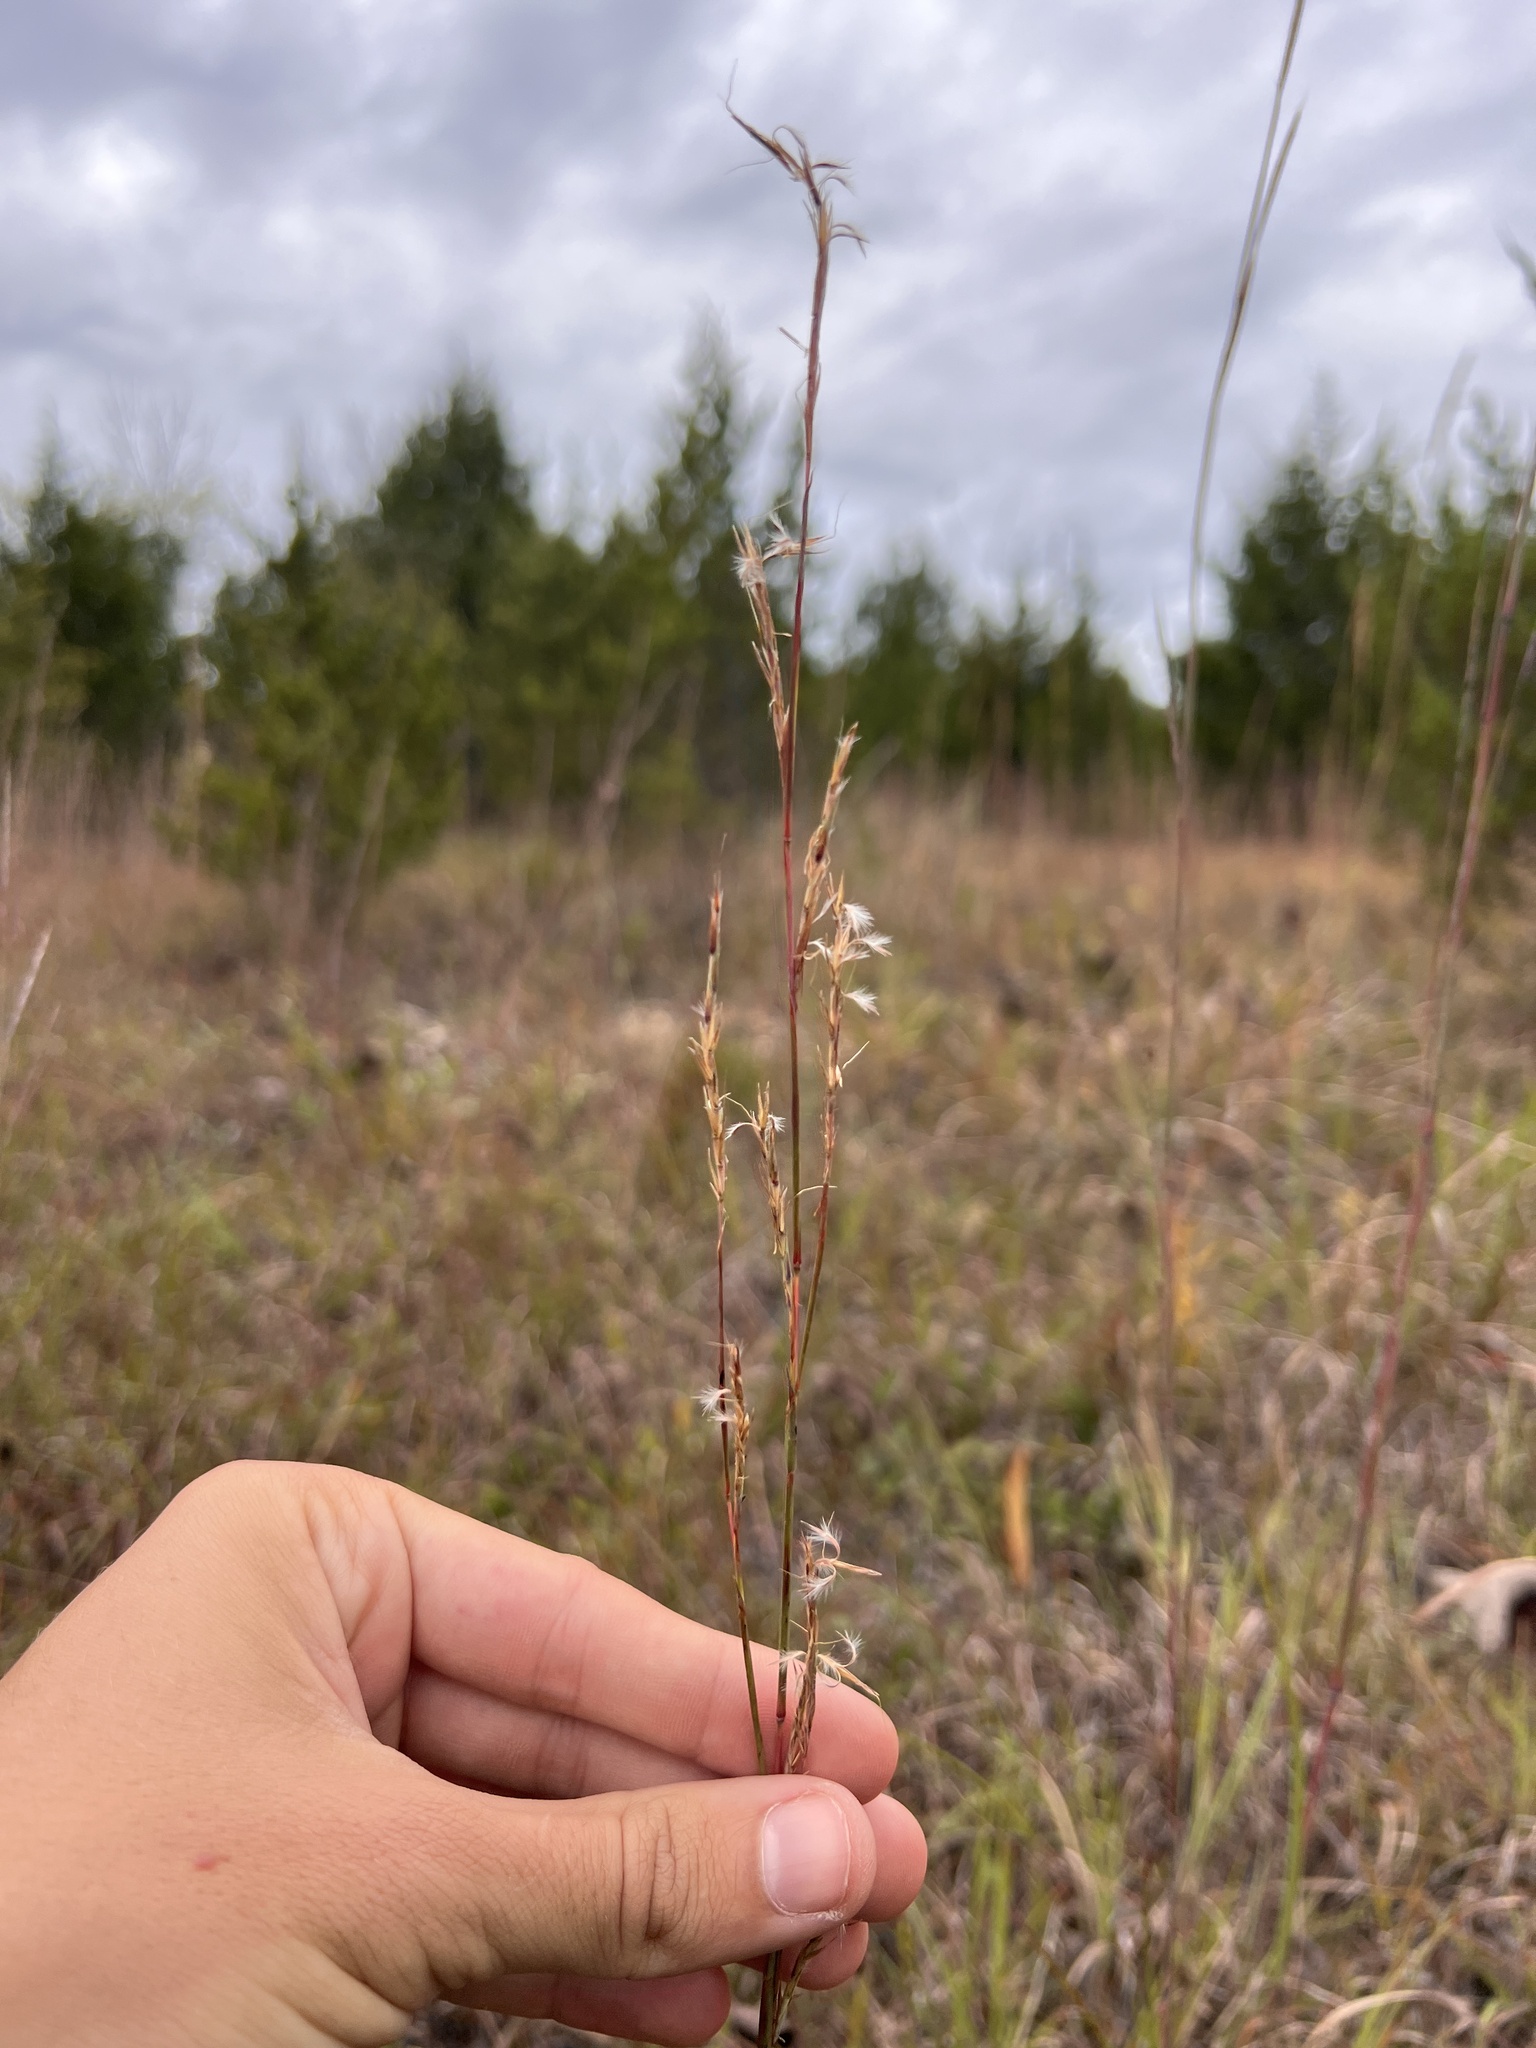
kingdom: Plantae
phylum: Tracheophyta
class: Liliopsida
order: Poales
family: Poaceae
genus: Schizachyrium
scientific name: Schizachyrium scoparium
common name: Little bluestem
